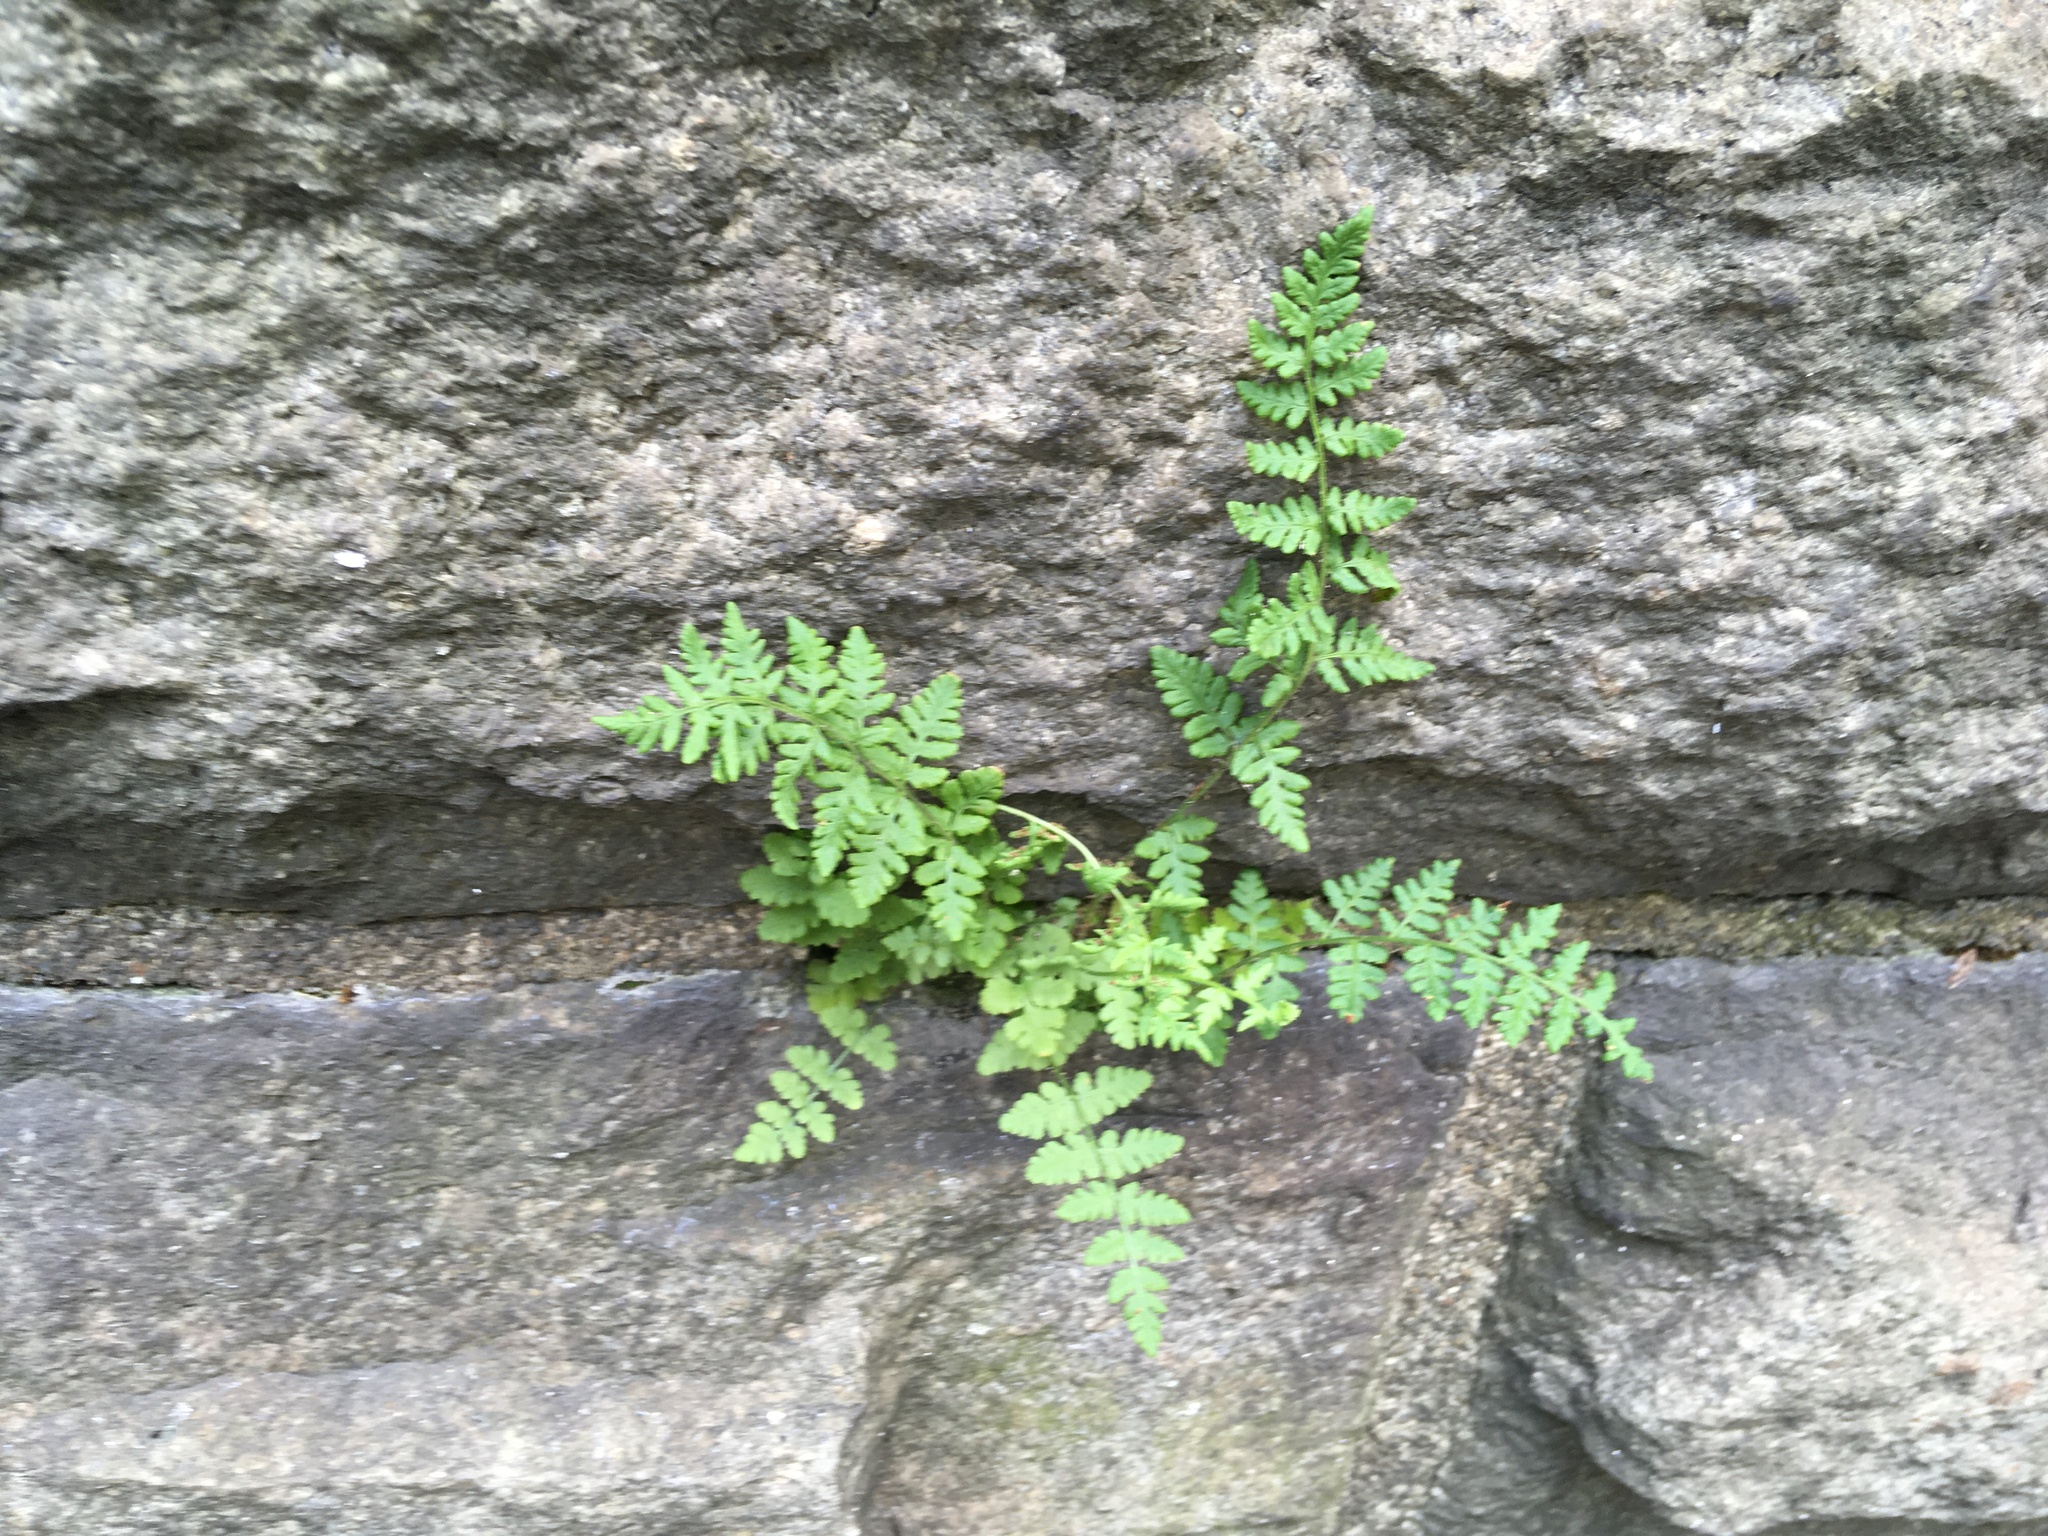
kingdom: Plantae
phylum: Tracheophyta
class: Polypodiopsida
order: Polypodiales
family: Woodsiaceae
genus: Physematium
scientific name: Physematium obtusum
